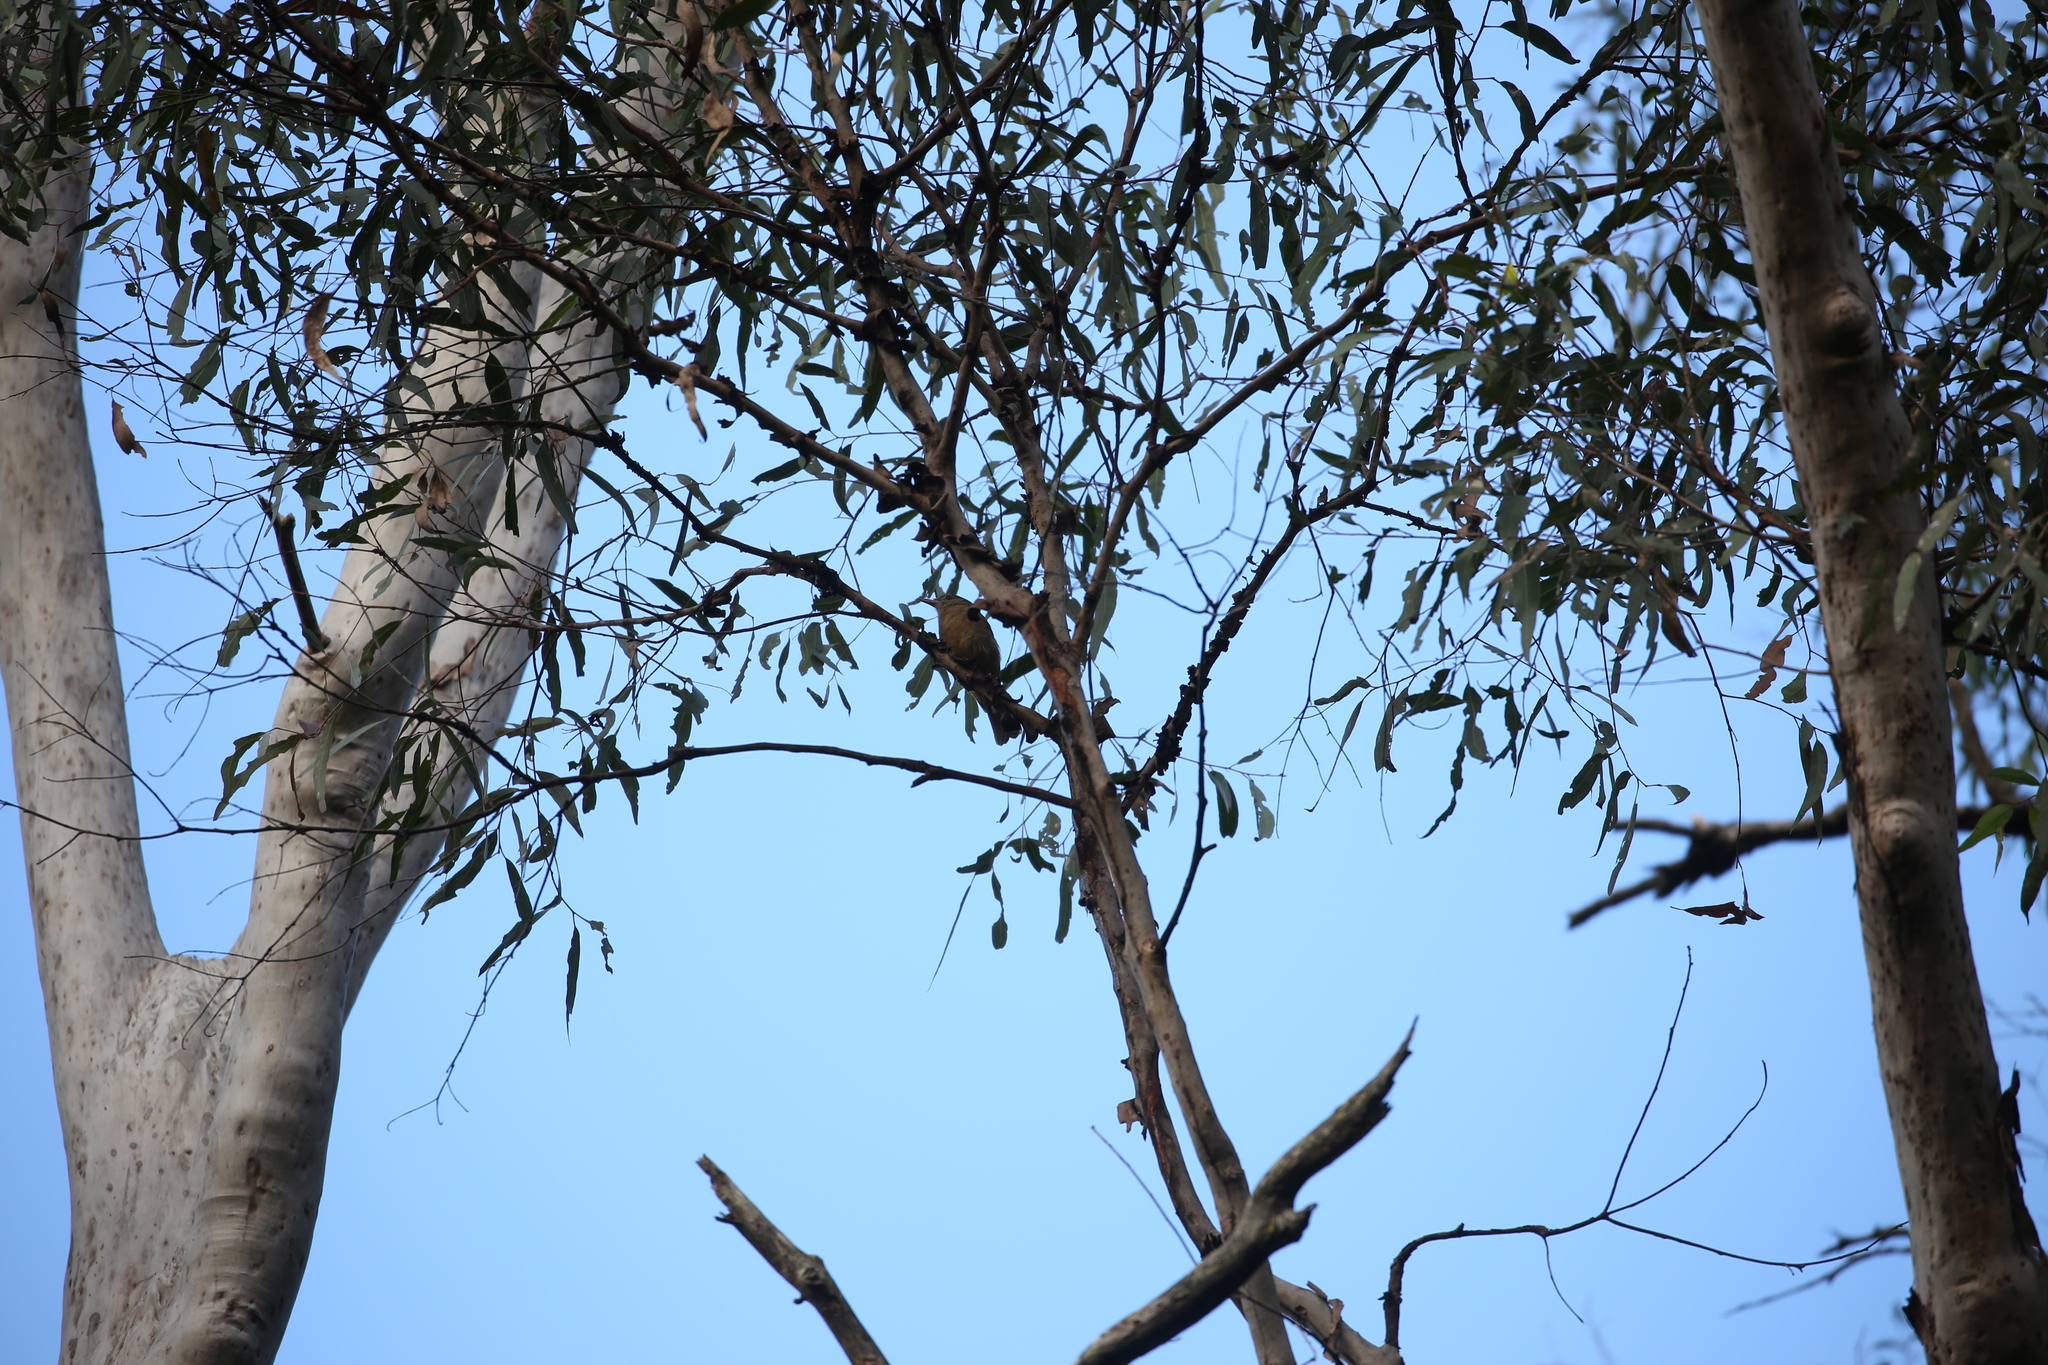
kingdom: Animalia
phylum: Chordata
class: Aves
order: Passeriformes
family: Pachycephalidae
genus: Colluricincla
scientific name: Colluricincla rufogaster
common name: Rufous shrikethrush
